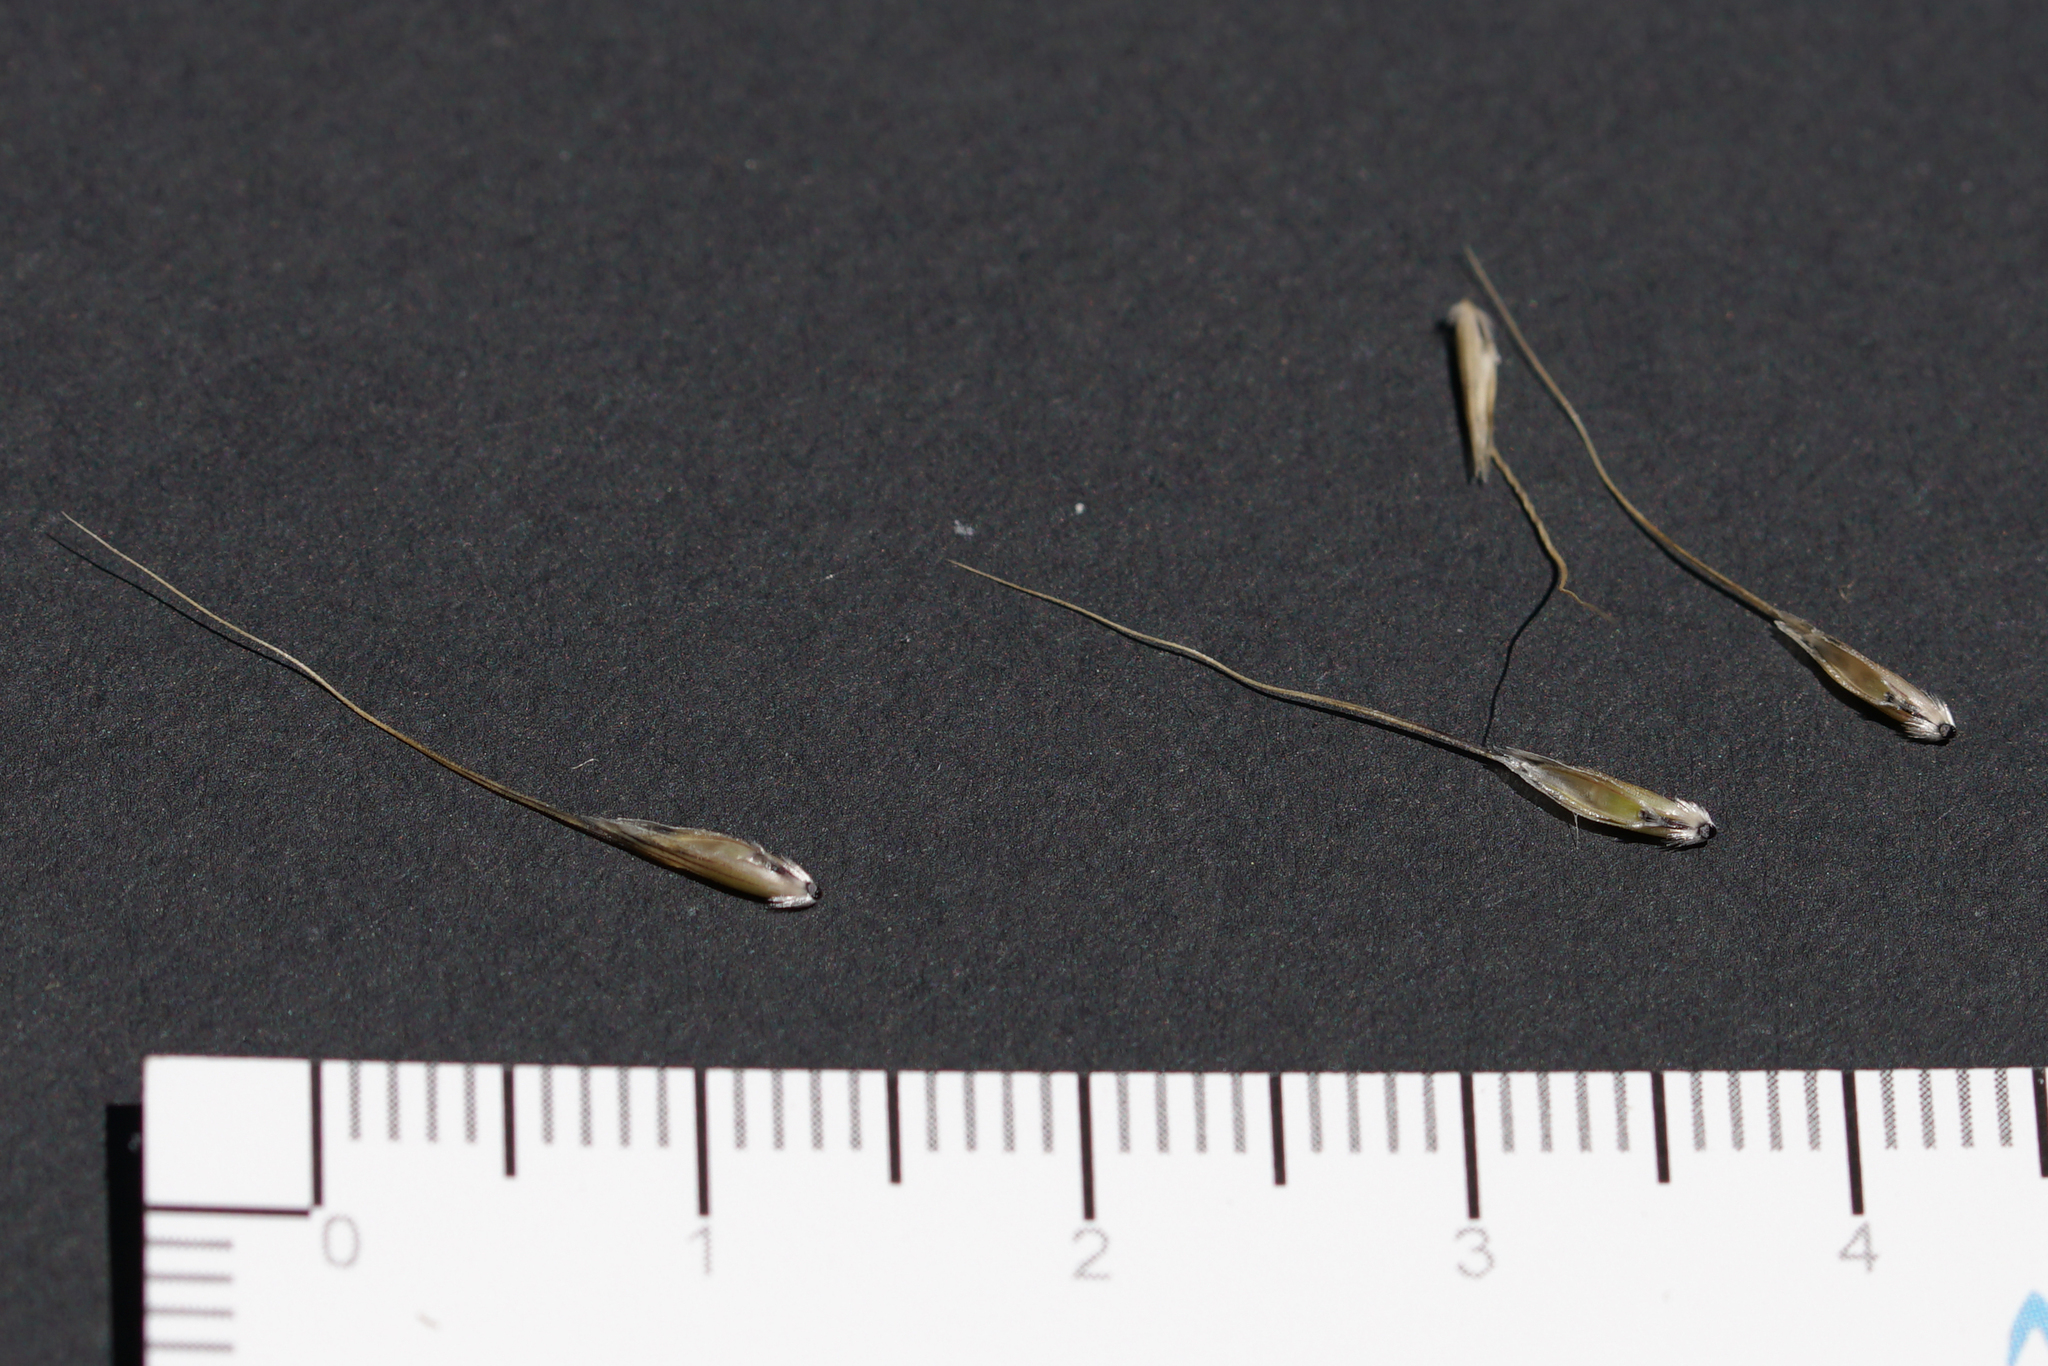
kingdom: Plantae
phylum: Tracheophyta
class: Liliopsida
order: Poales
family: Poaceae
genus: Amphibromus
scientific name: Amphibromus neesii
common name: Australian wallaby grass
